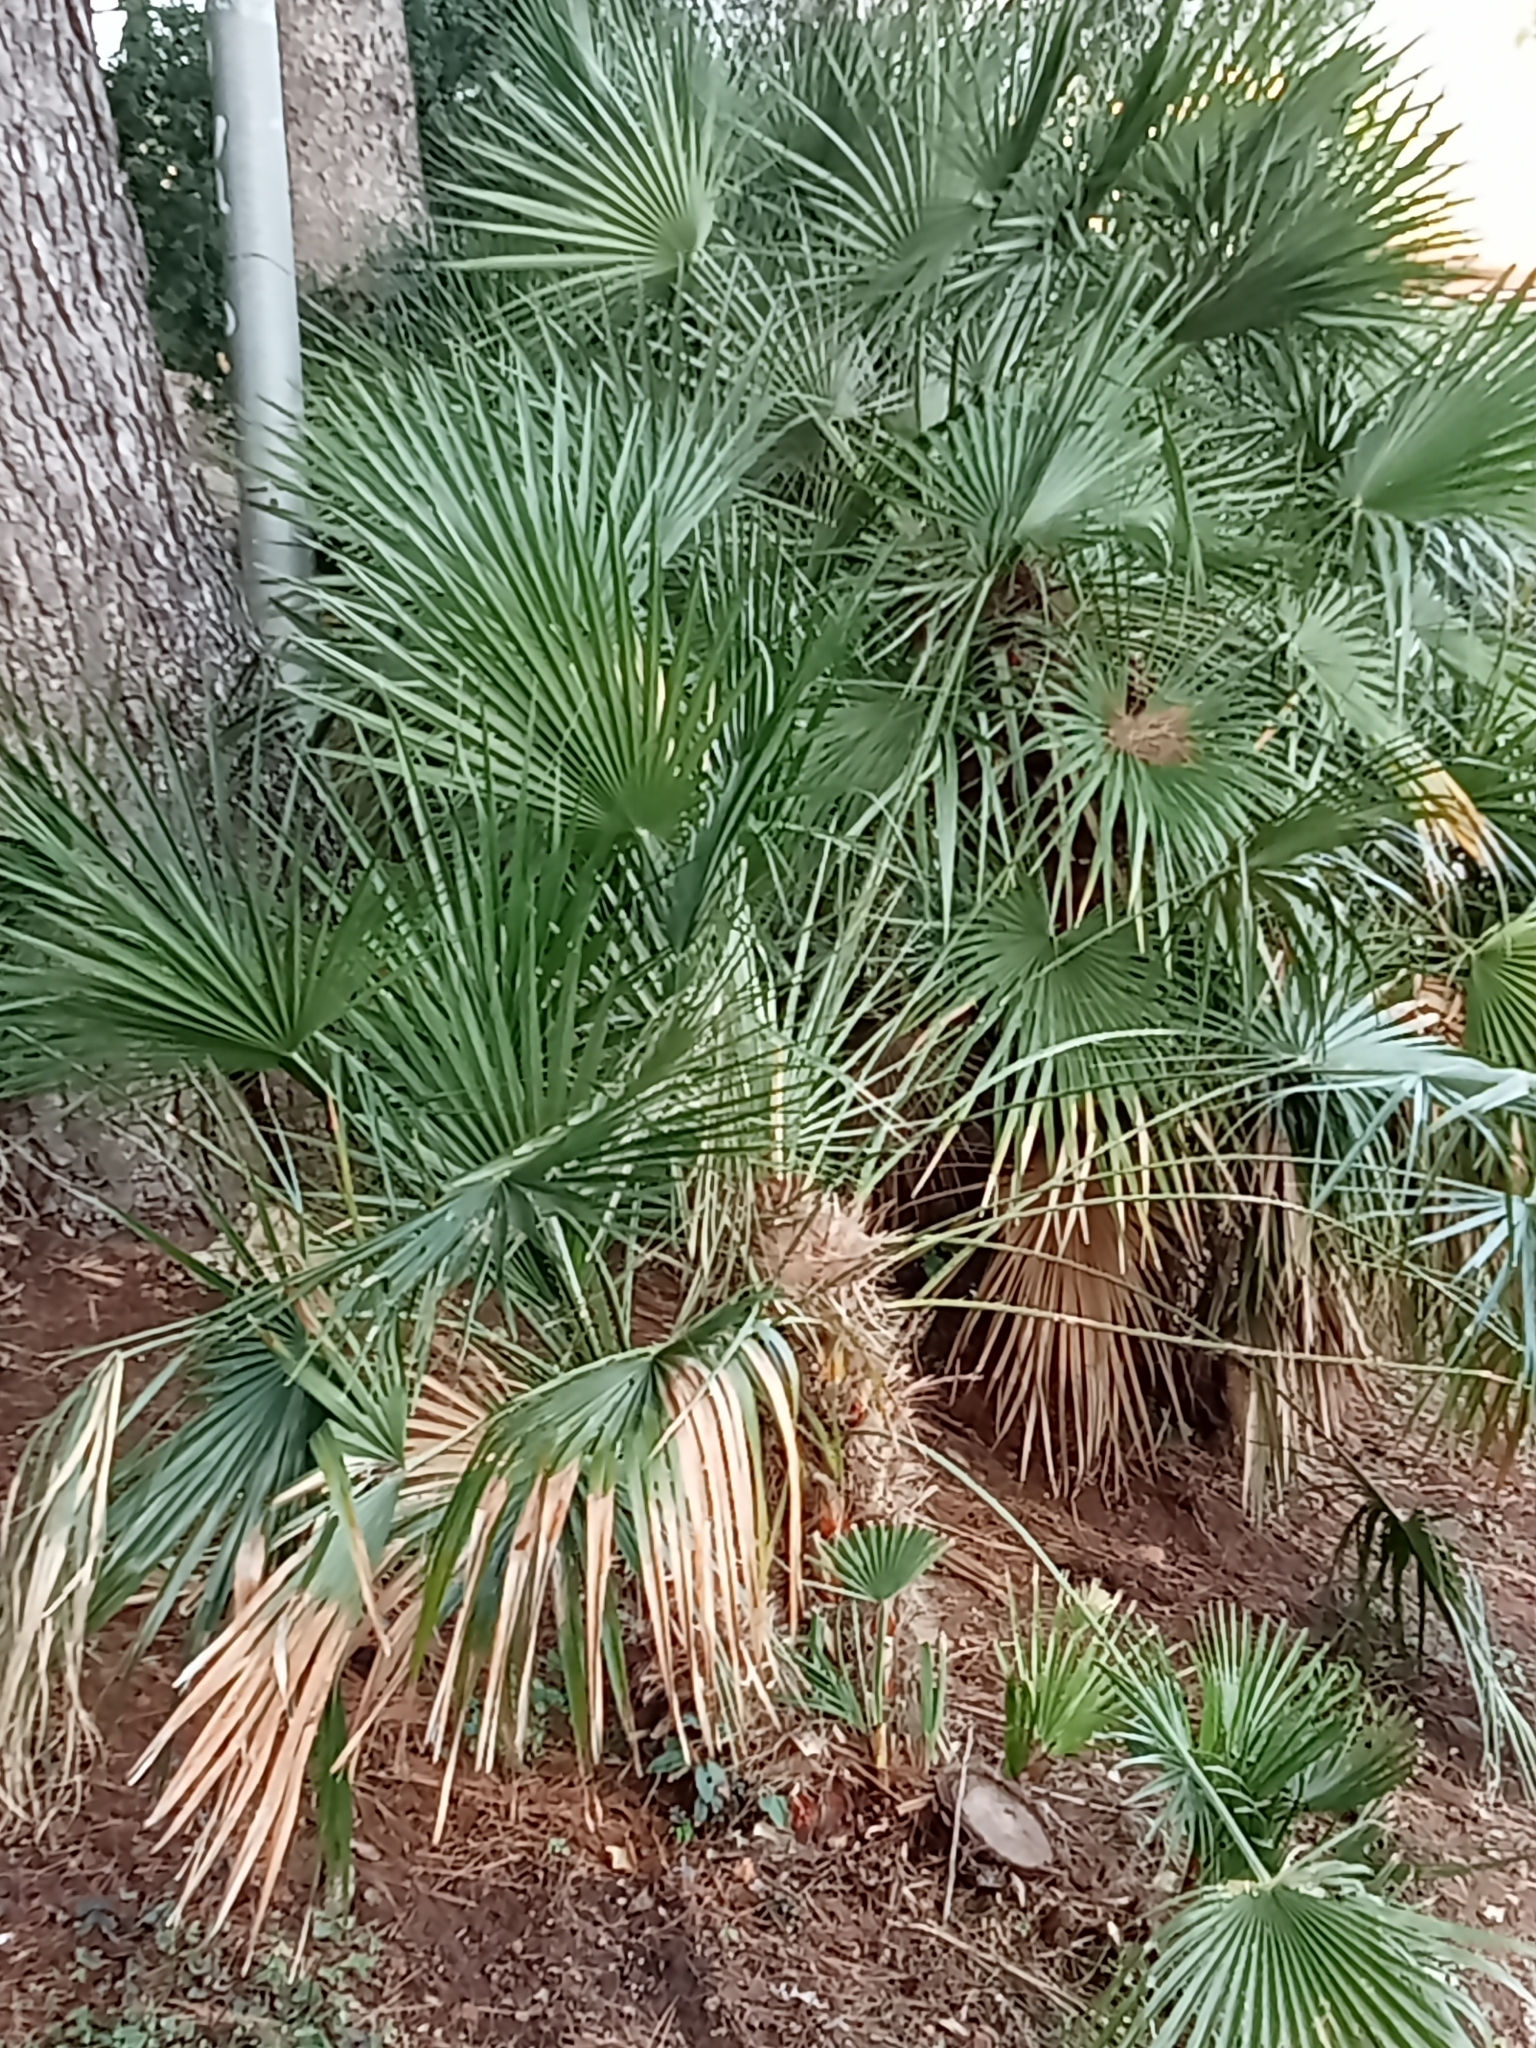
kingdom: Plantae
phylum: Tracheophyta
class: Liliopsida
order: Arecales
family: Arecaceae
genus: Chamaerops
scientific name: Chamaerops humilis
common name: Dwarf fan palm
